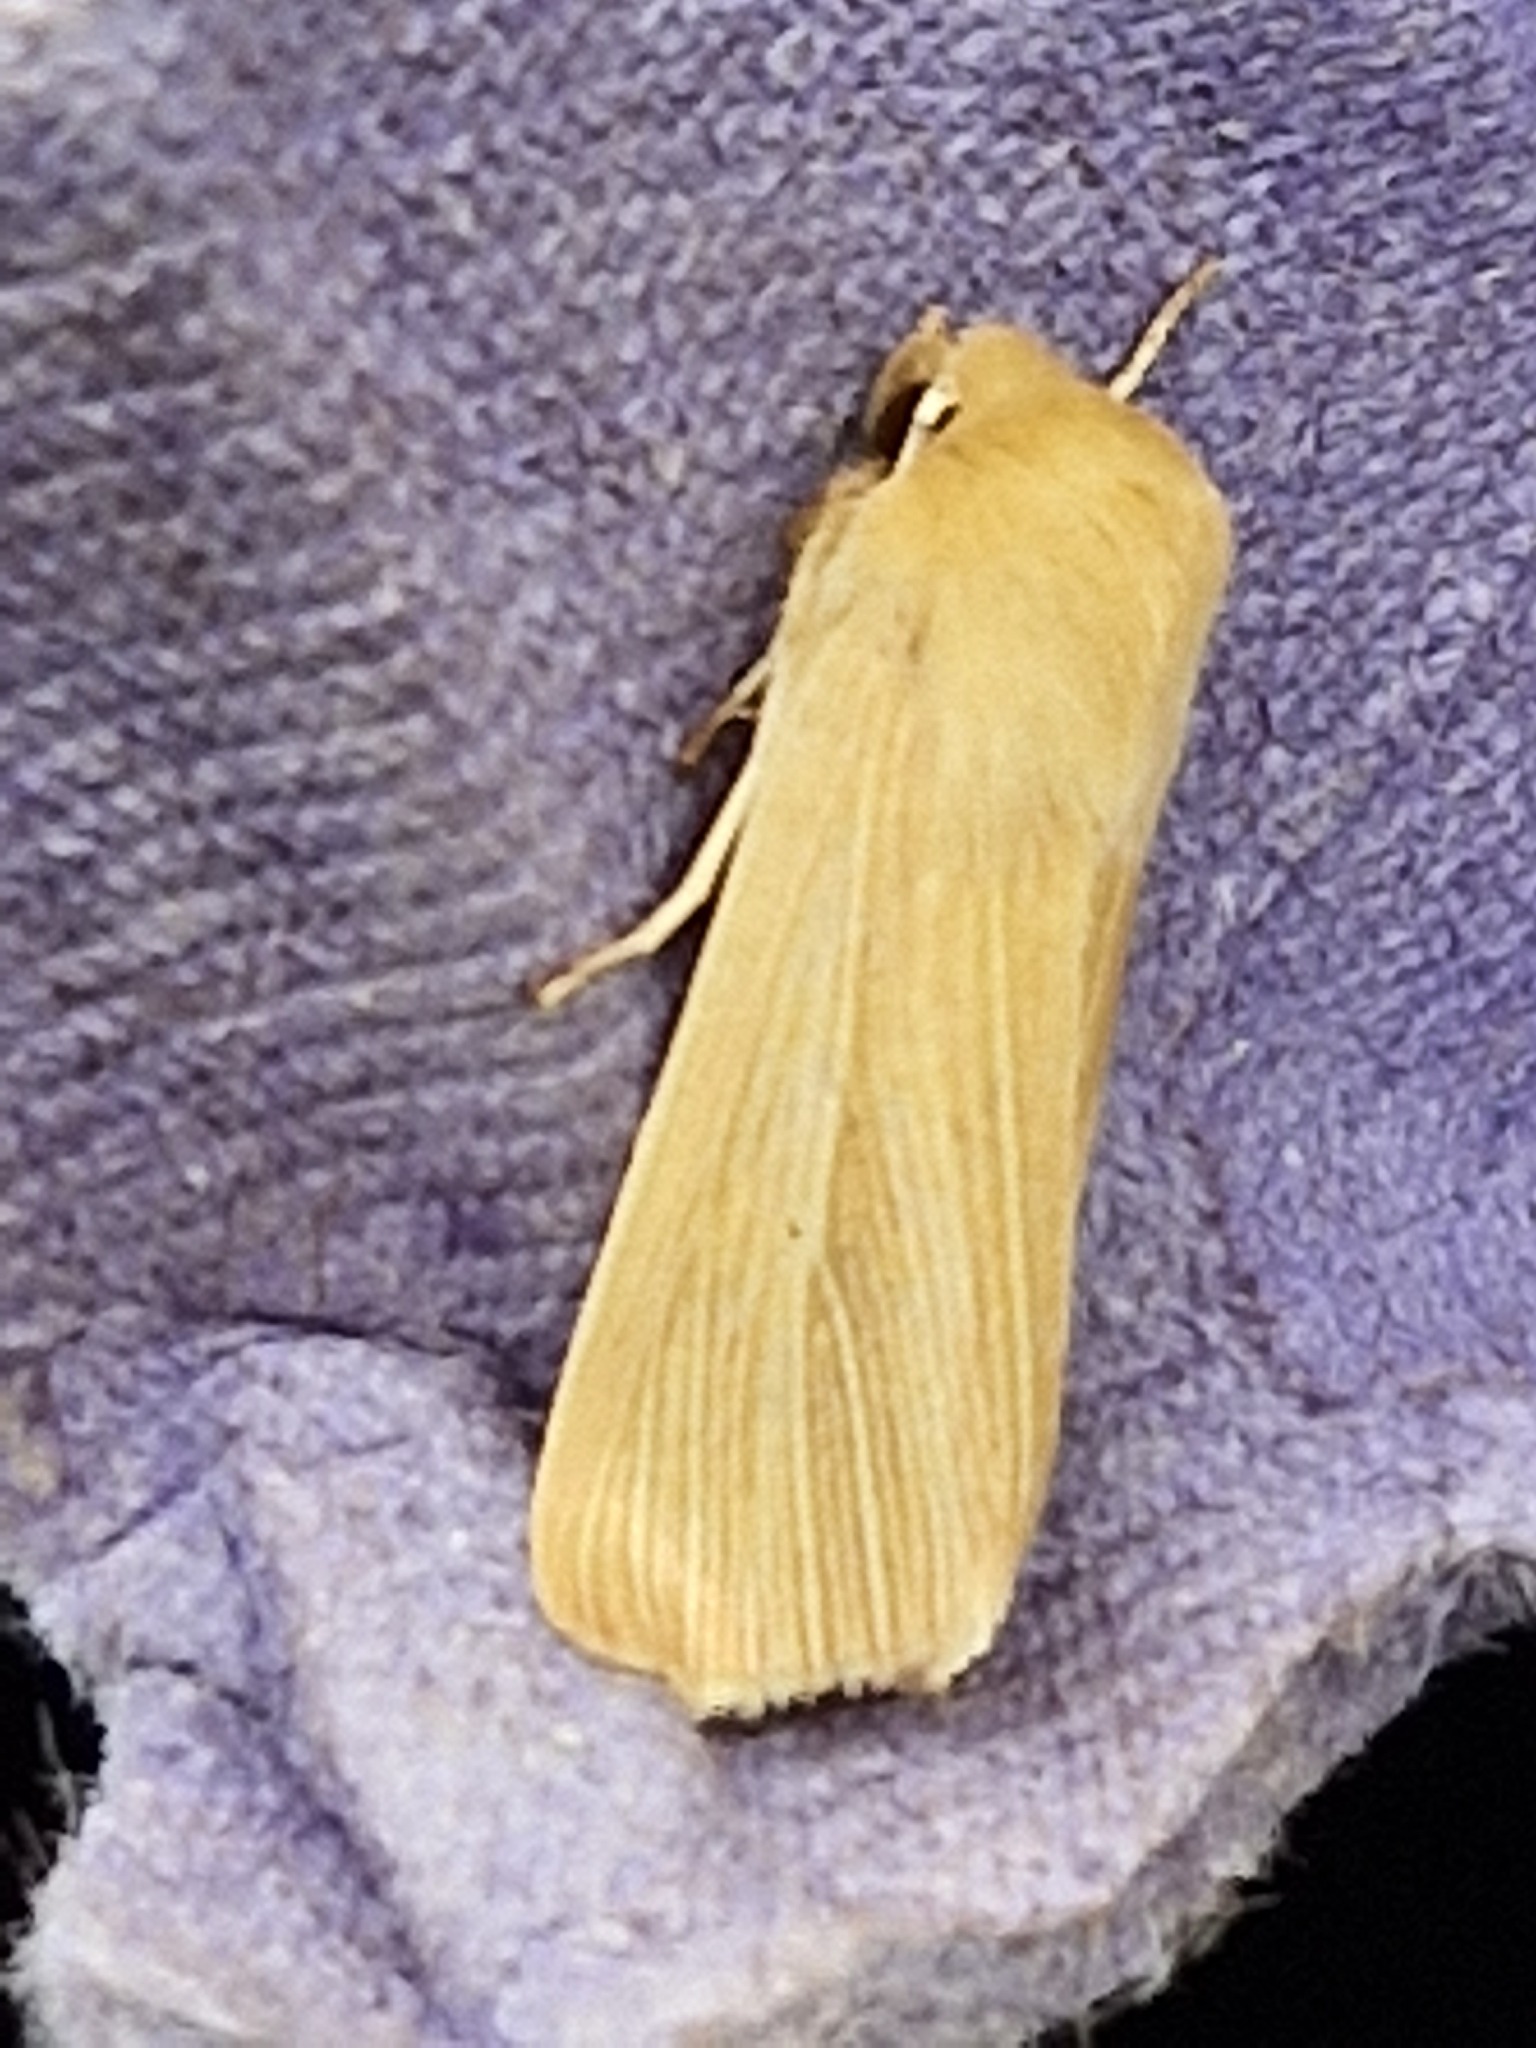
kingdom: Animalia
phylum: Arthropoda
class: Insecta
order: Lepidoptera
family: Noctuidae
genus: Mythimna
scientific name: Mythimna pallens
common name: Common wainscot
